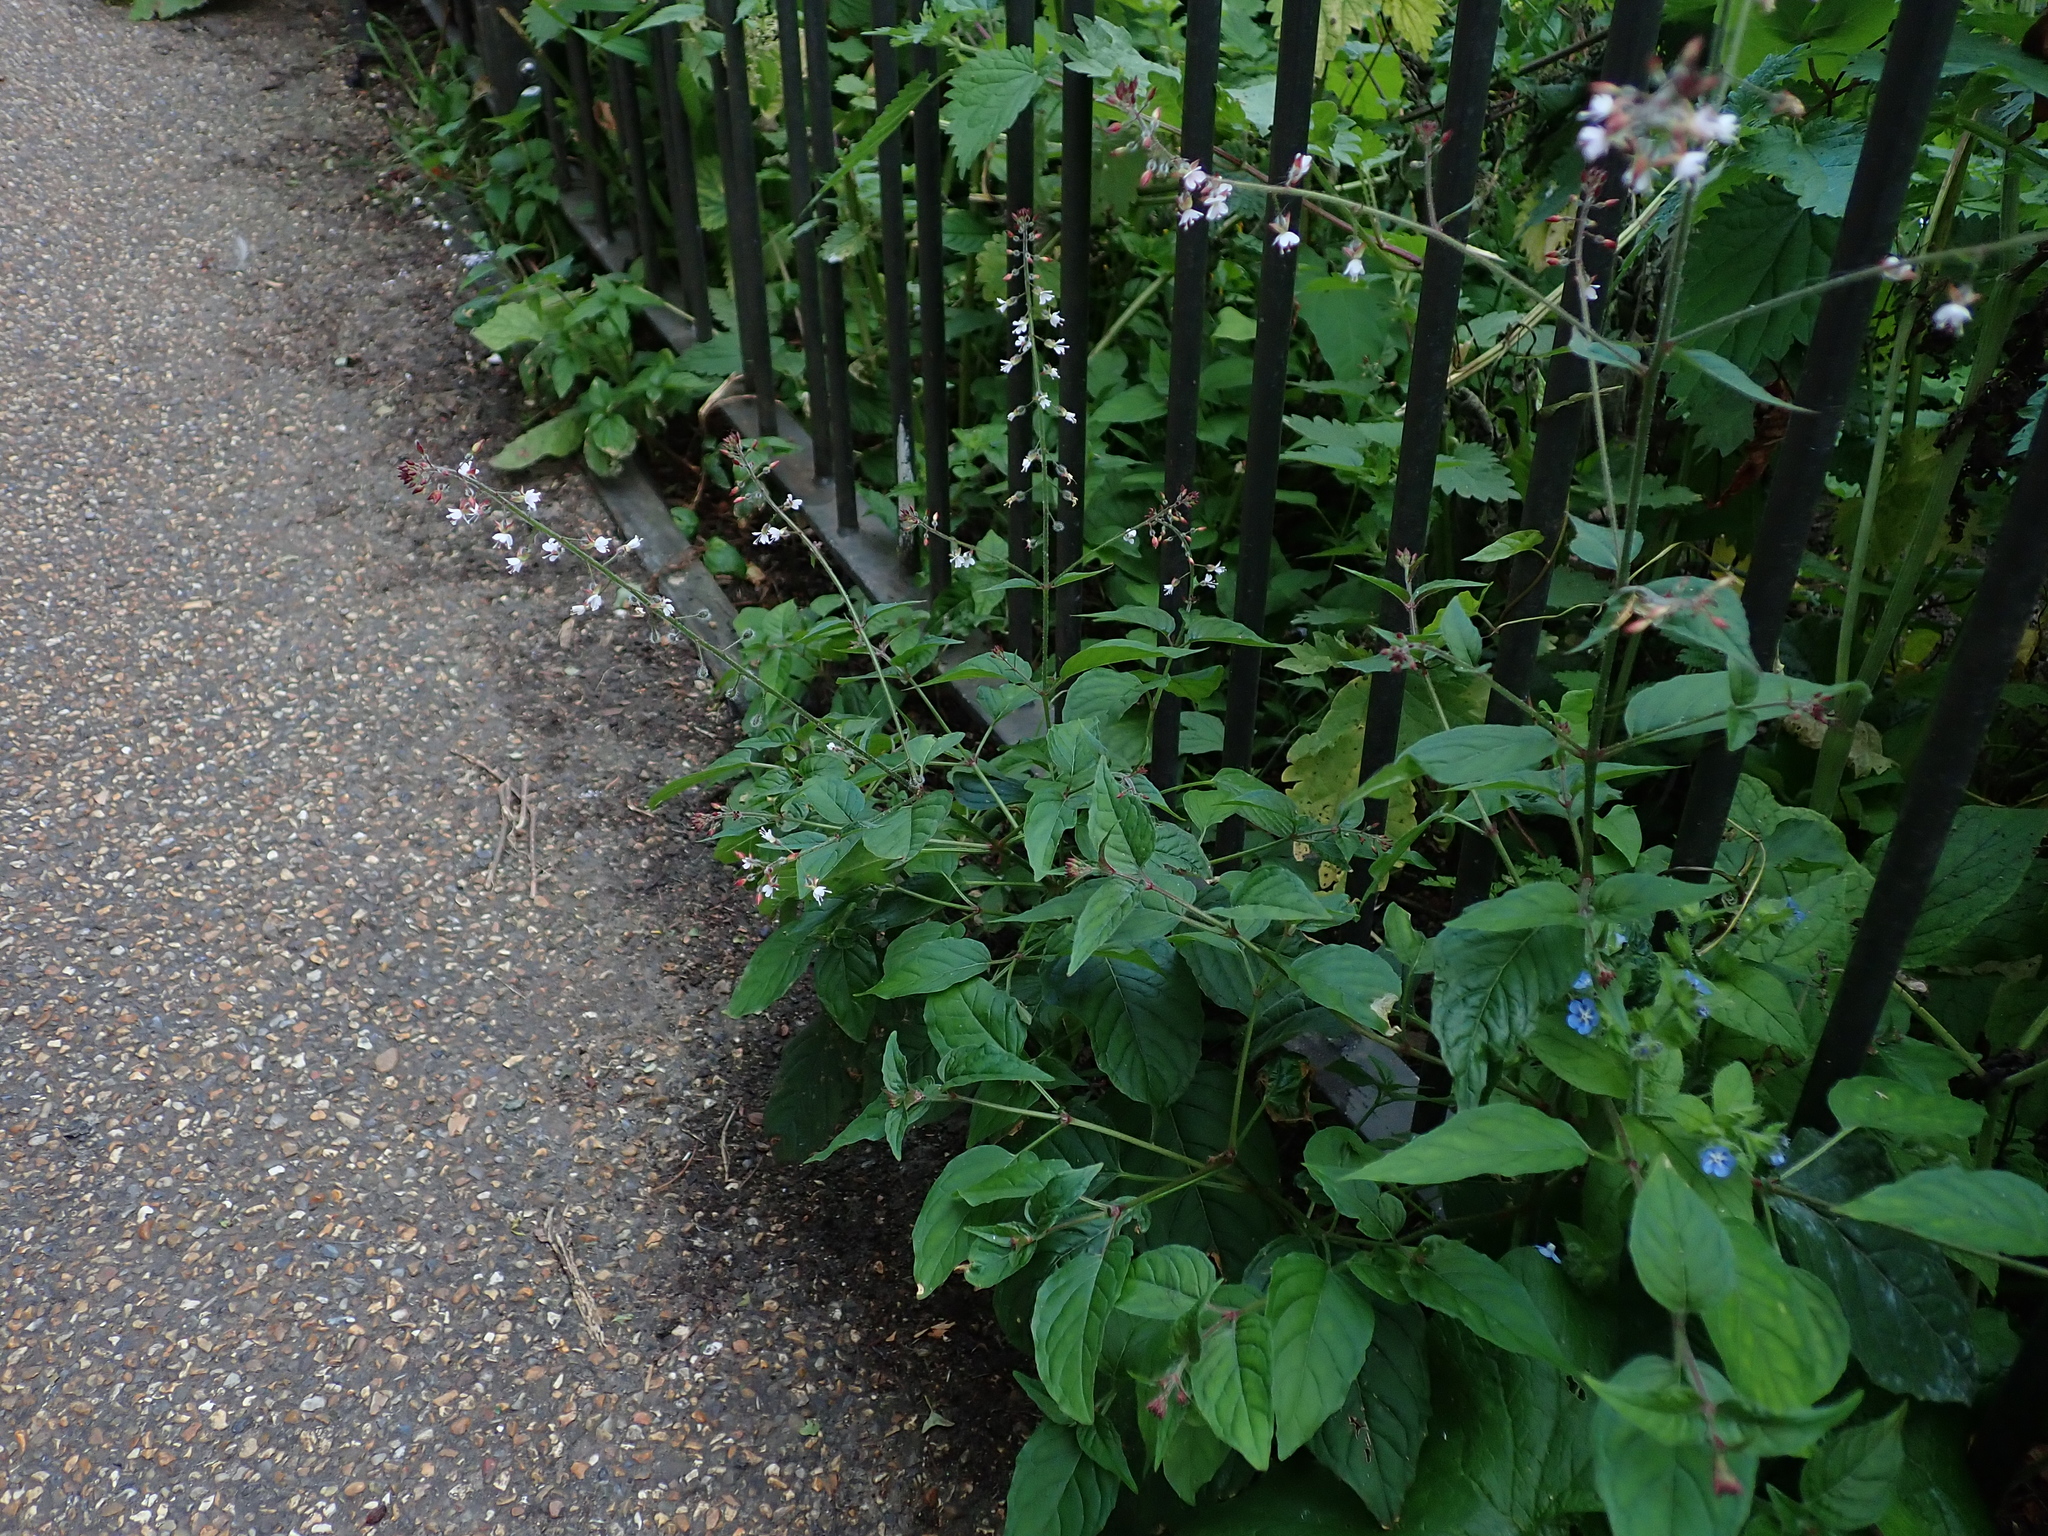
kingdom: Plantae
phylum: Tracheophyta
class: Magnoliopsida
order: Myrtales
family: Onagraceae
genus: Circaea
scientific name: Circaea lutetiana
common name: Enchanter's-nightshade
